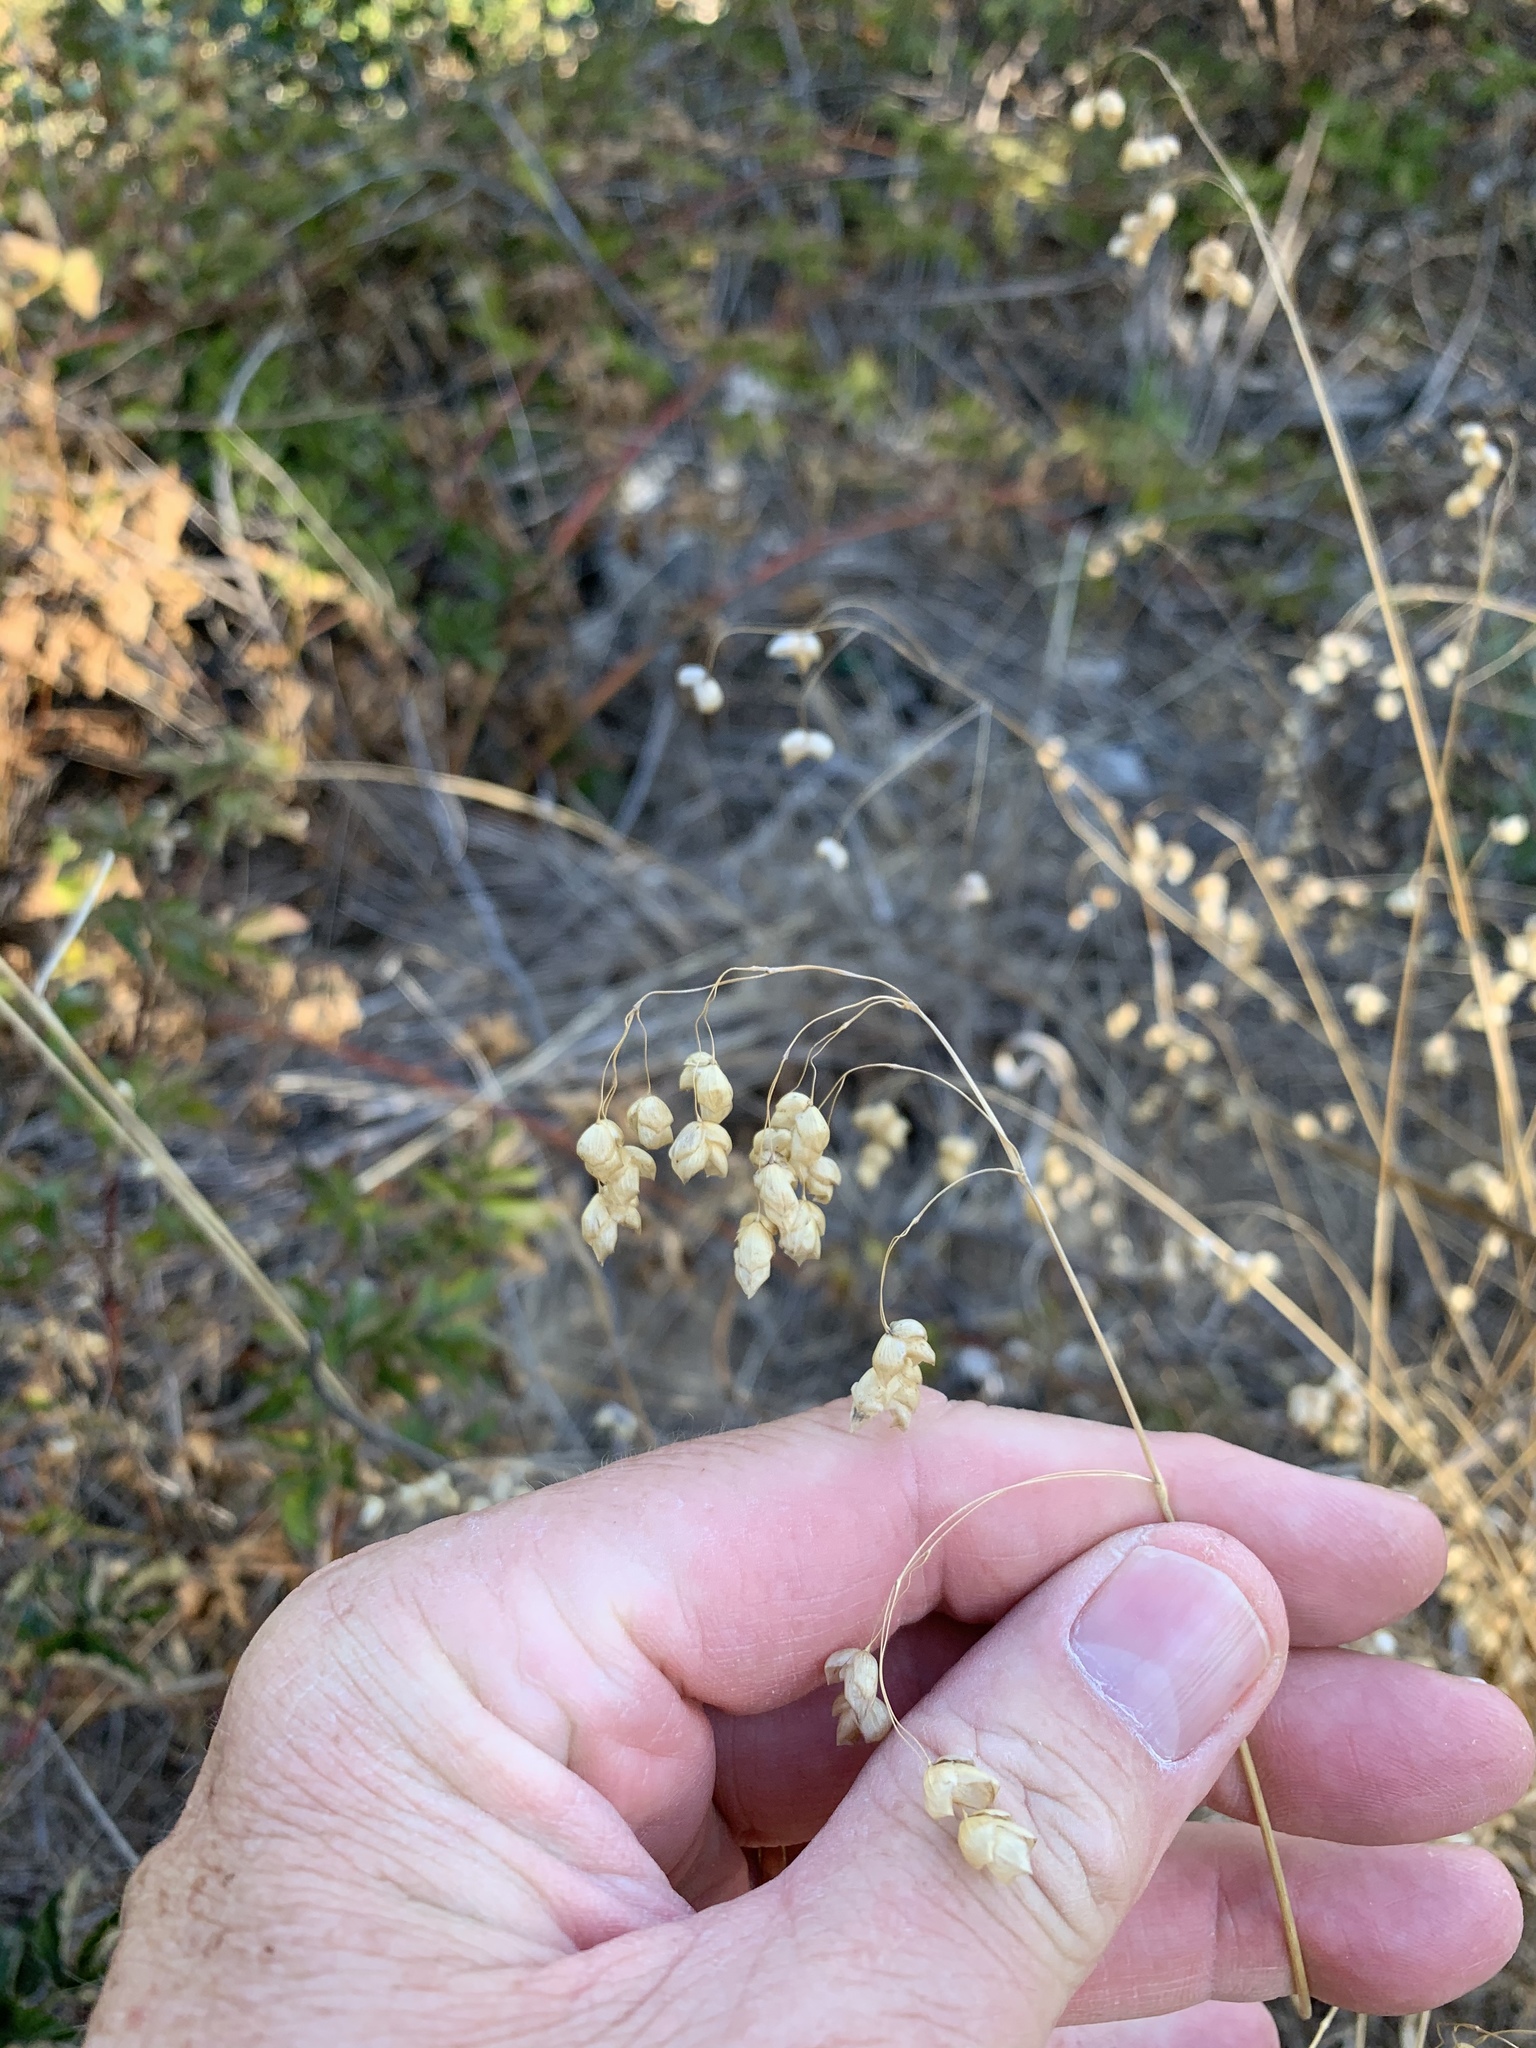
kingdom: Plantae
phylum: Tracheophyta
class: Liliopsida
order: Poales
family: Poaceae
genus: Briza
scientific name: Briza maxima
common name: Big quakinggrass
